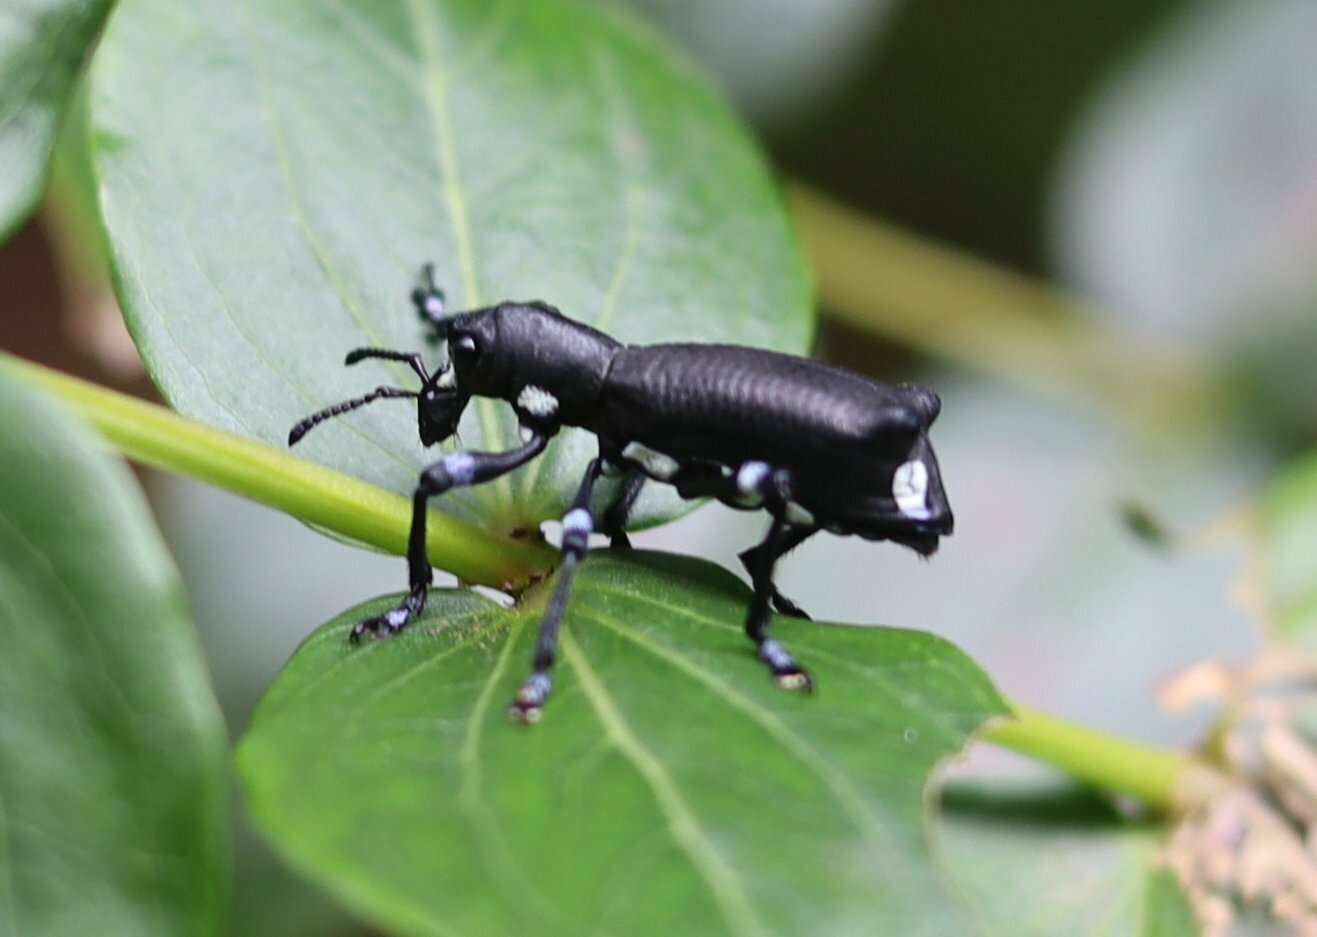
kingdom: Animalia
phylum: Arthropoda
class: Insecta
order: Coleoptera
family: Curculionidae
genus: Aegorhinus
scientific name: Aegorhinus
